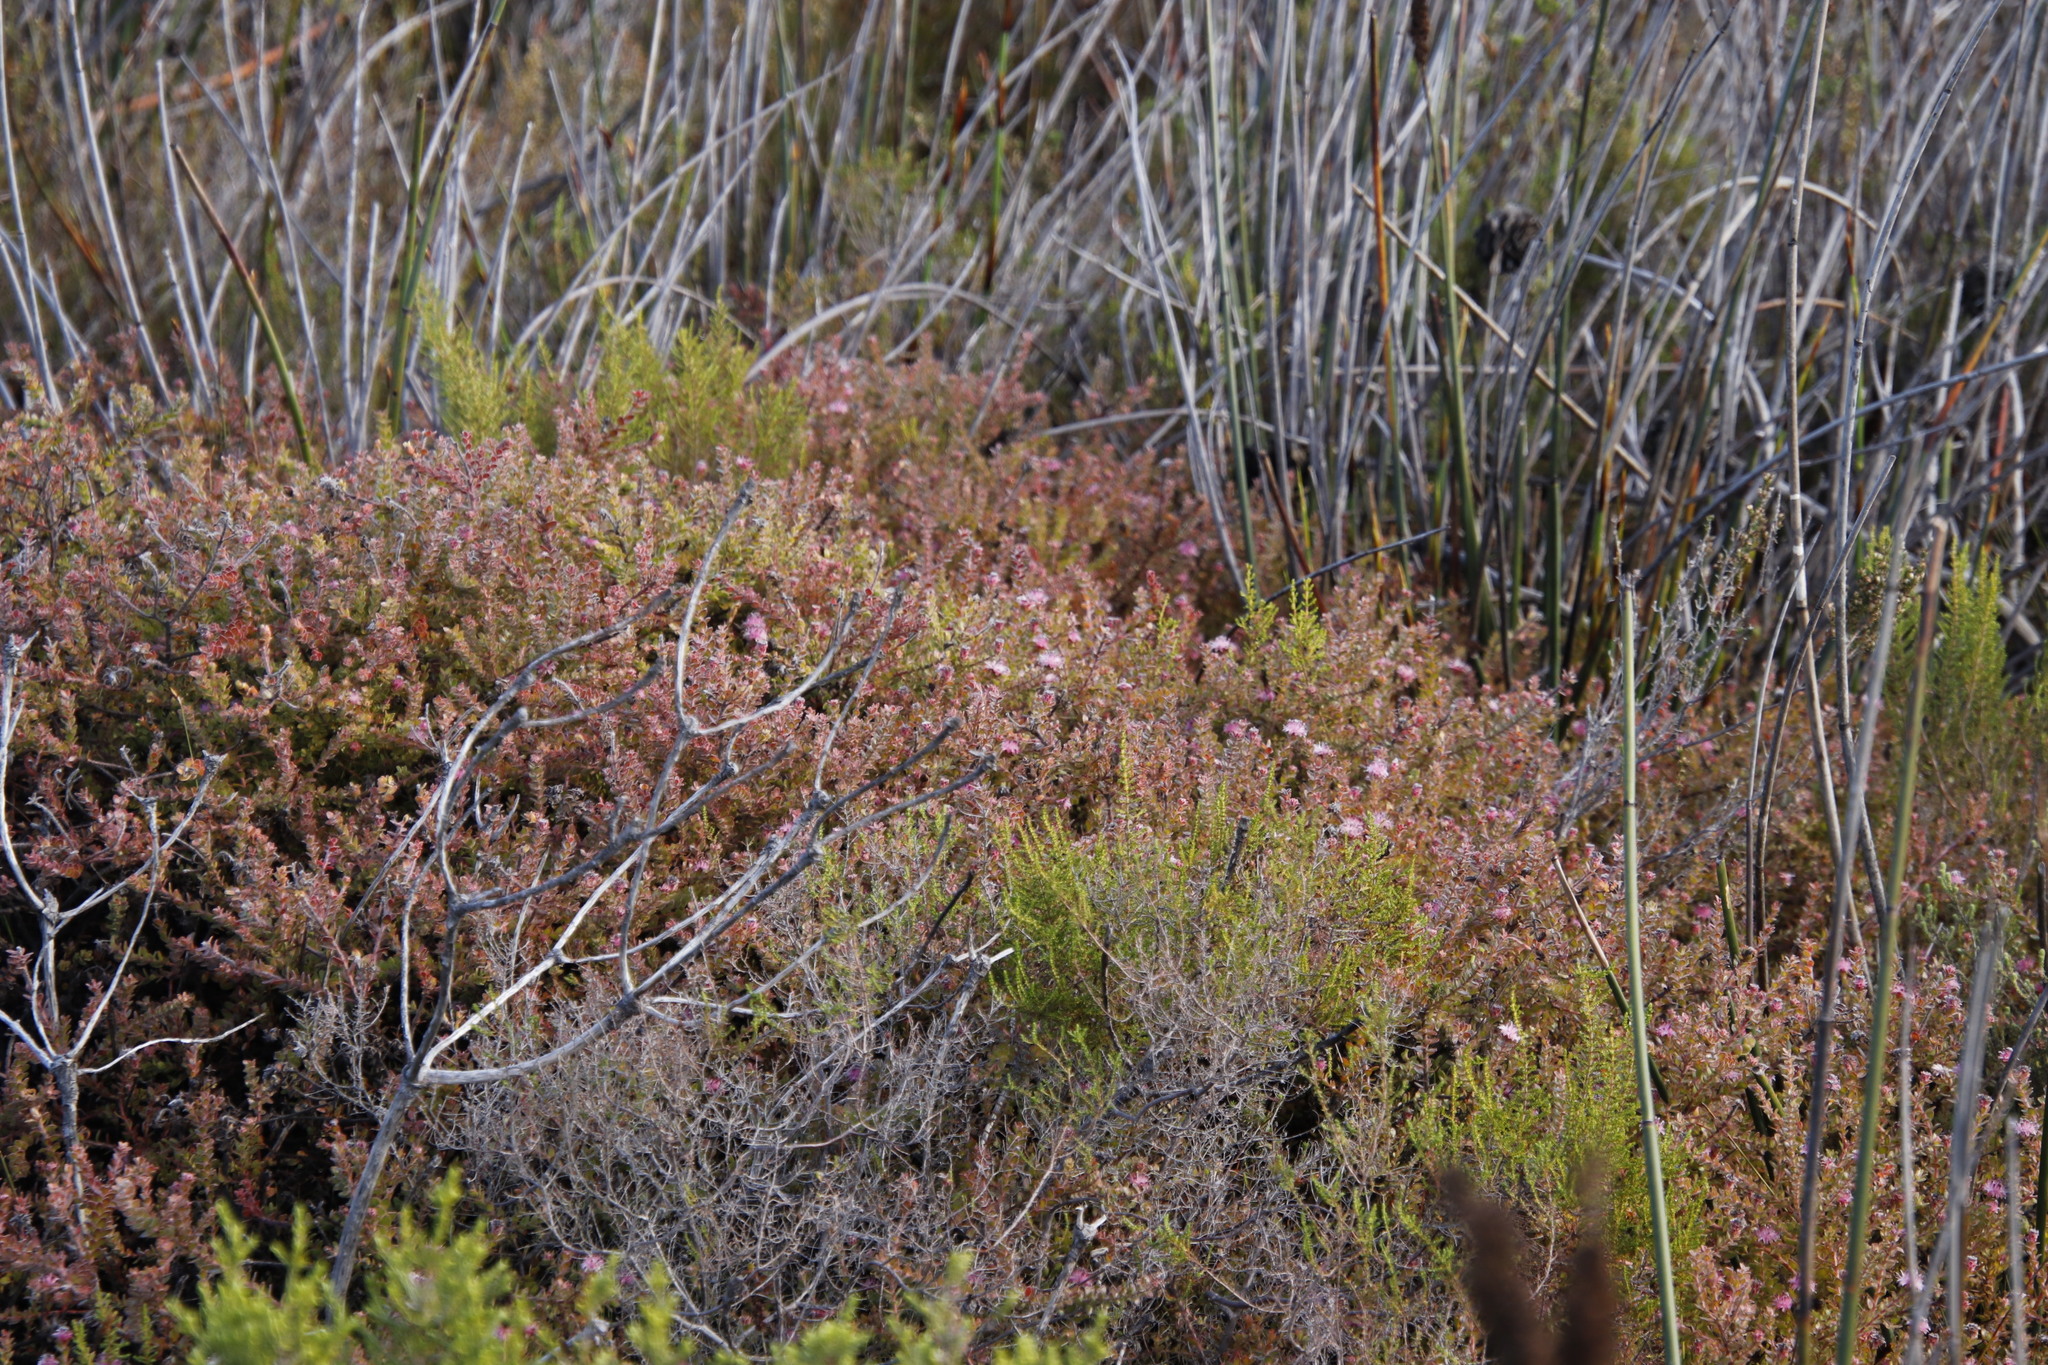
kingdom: Plantae
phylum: Tracheophyta
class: Magnoliopsida
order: Proteales
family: Proteaceae
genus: Diastella
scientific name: Diastella divaricata
